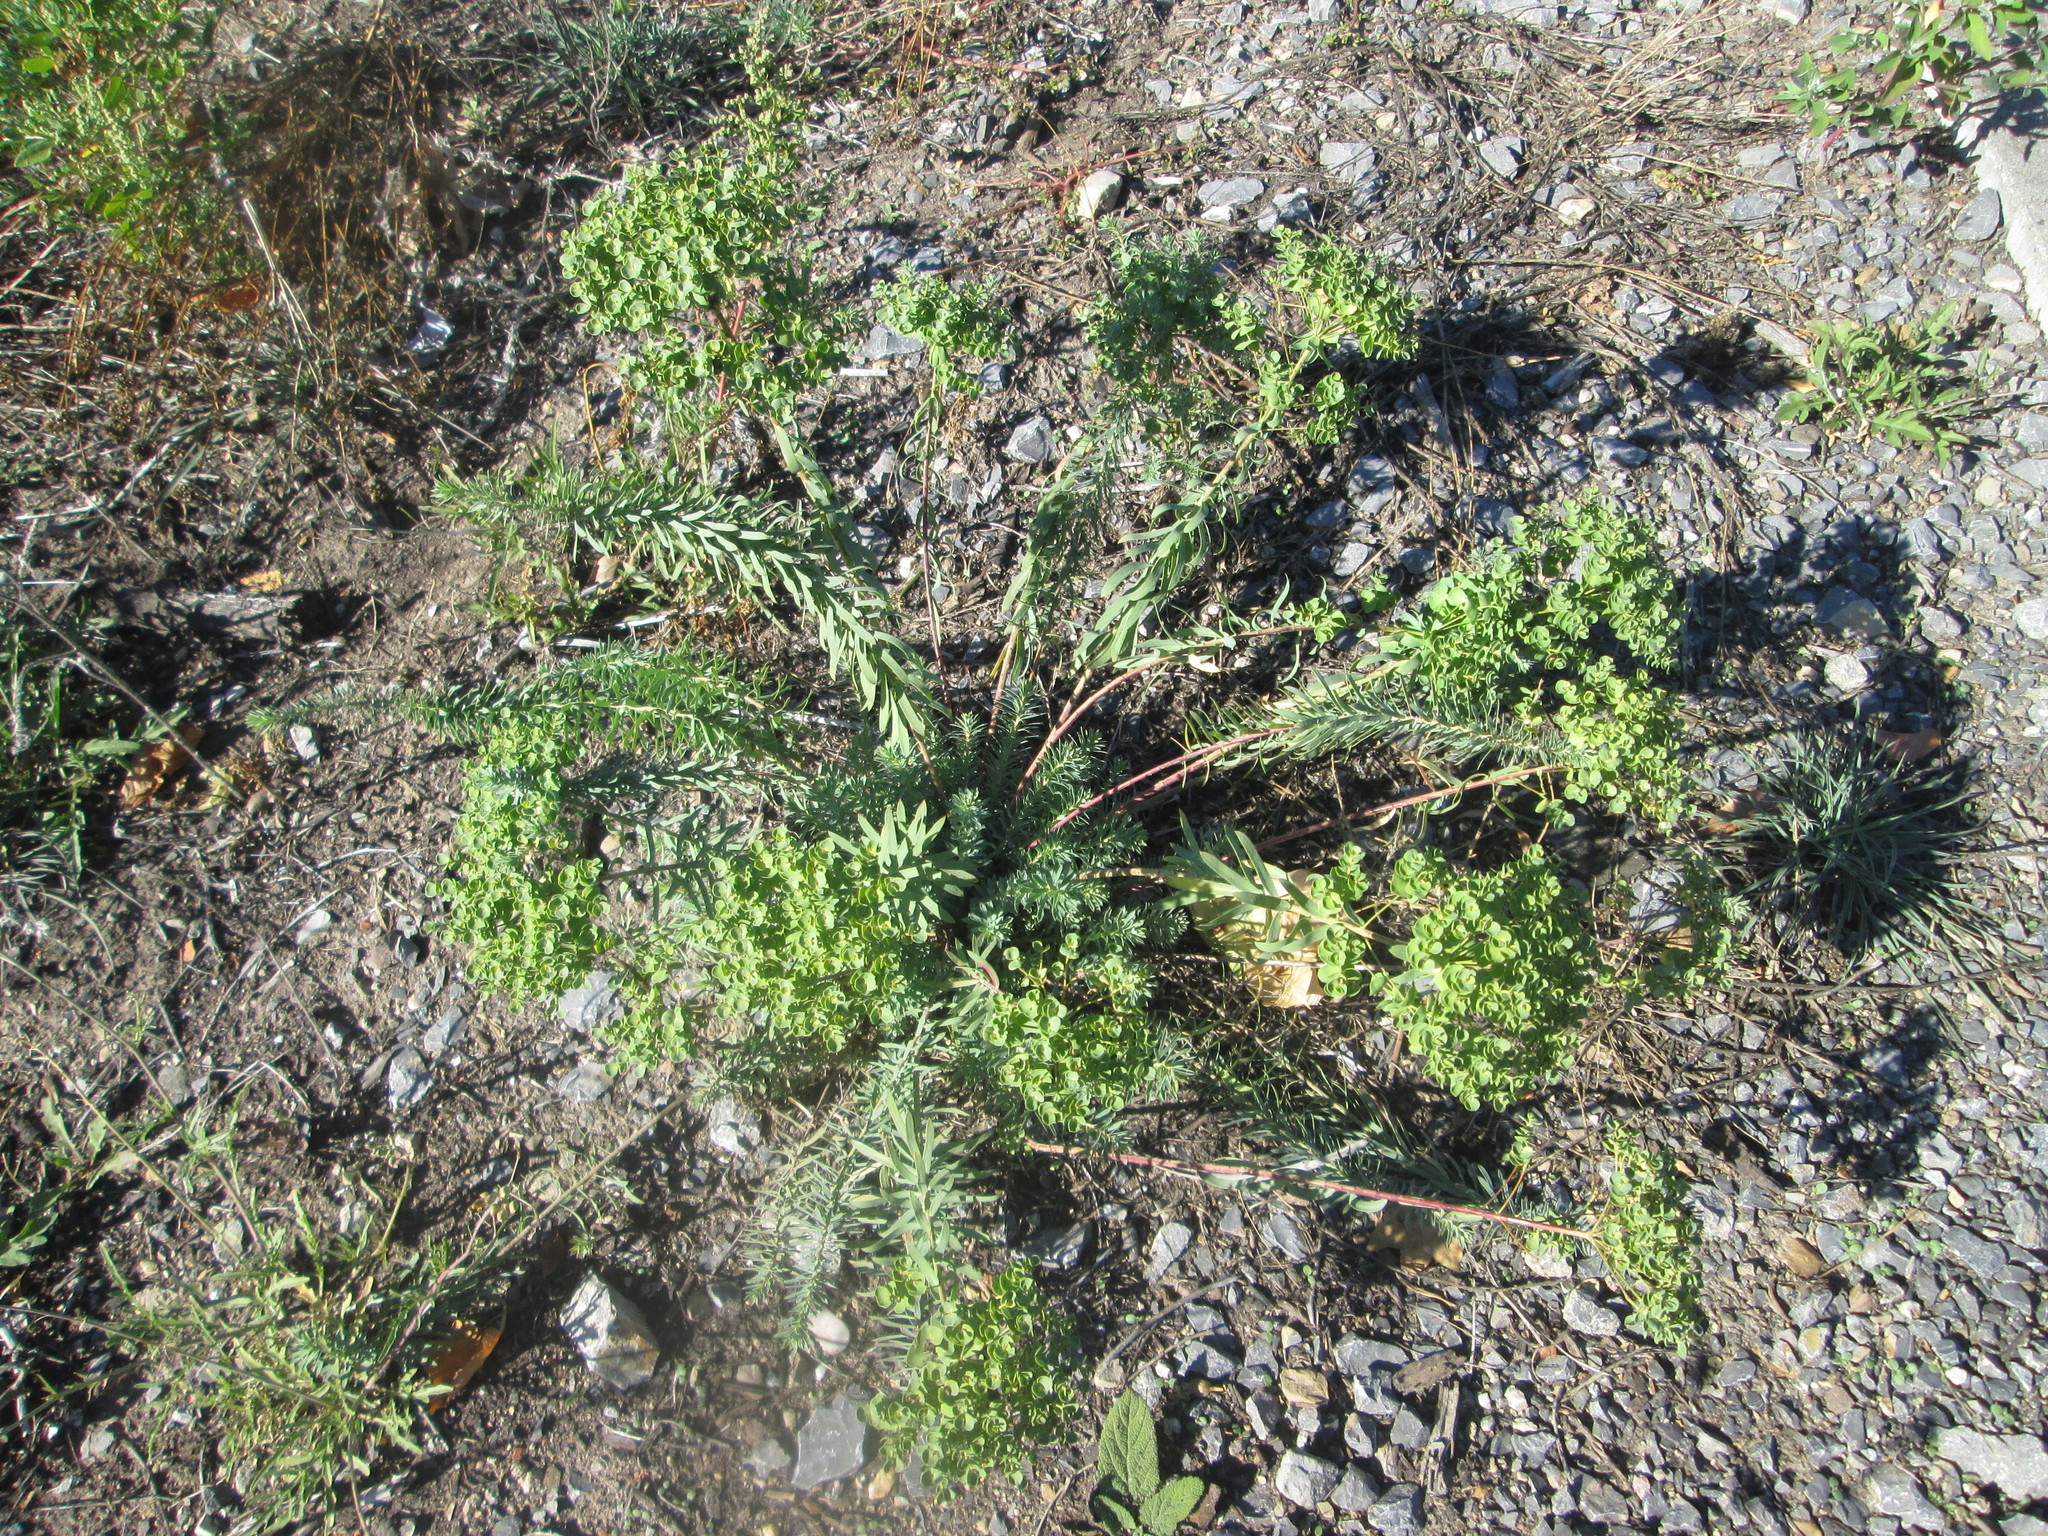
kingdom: Plantae
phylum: Tracheophyta
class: Magnoliopsida
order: Malpighiales
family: Euphorbiaceae
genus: Euphorbia
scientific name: Euphorbia seguieriana
